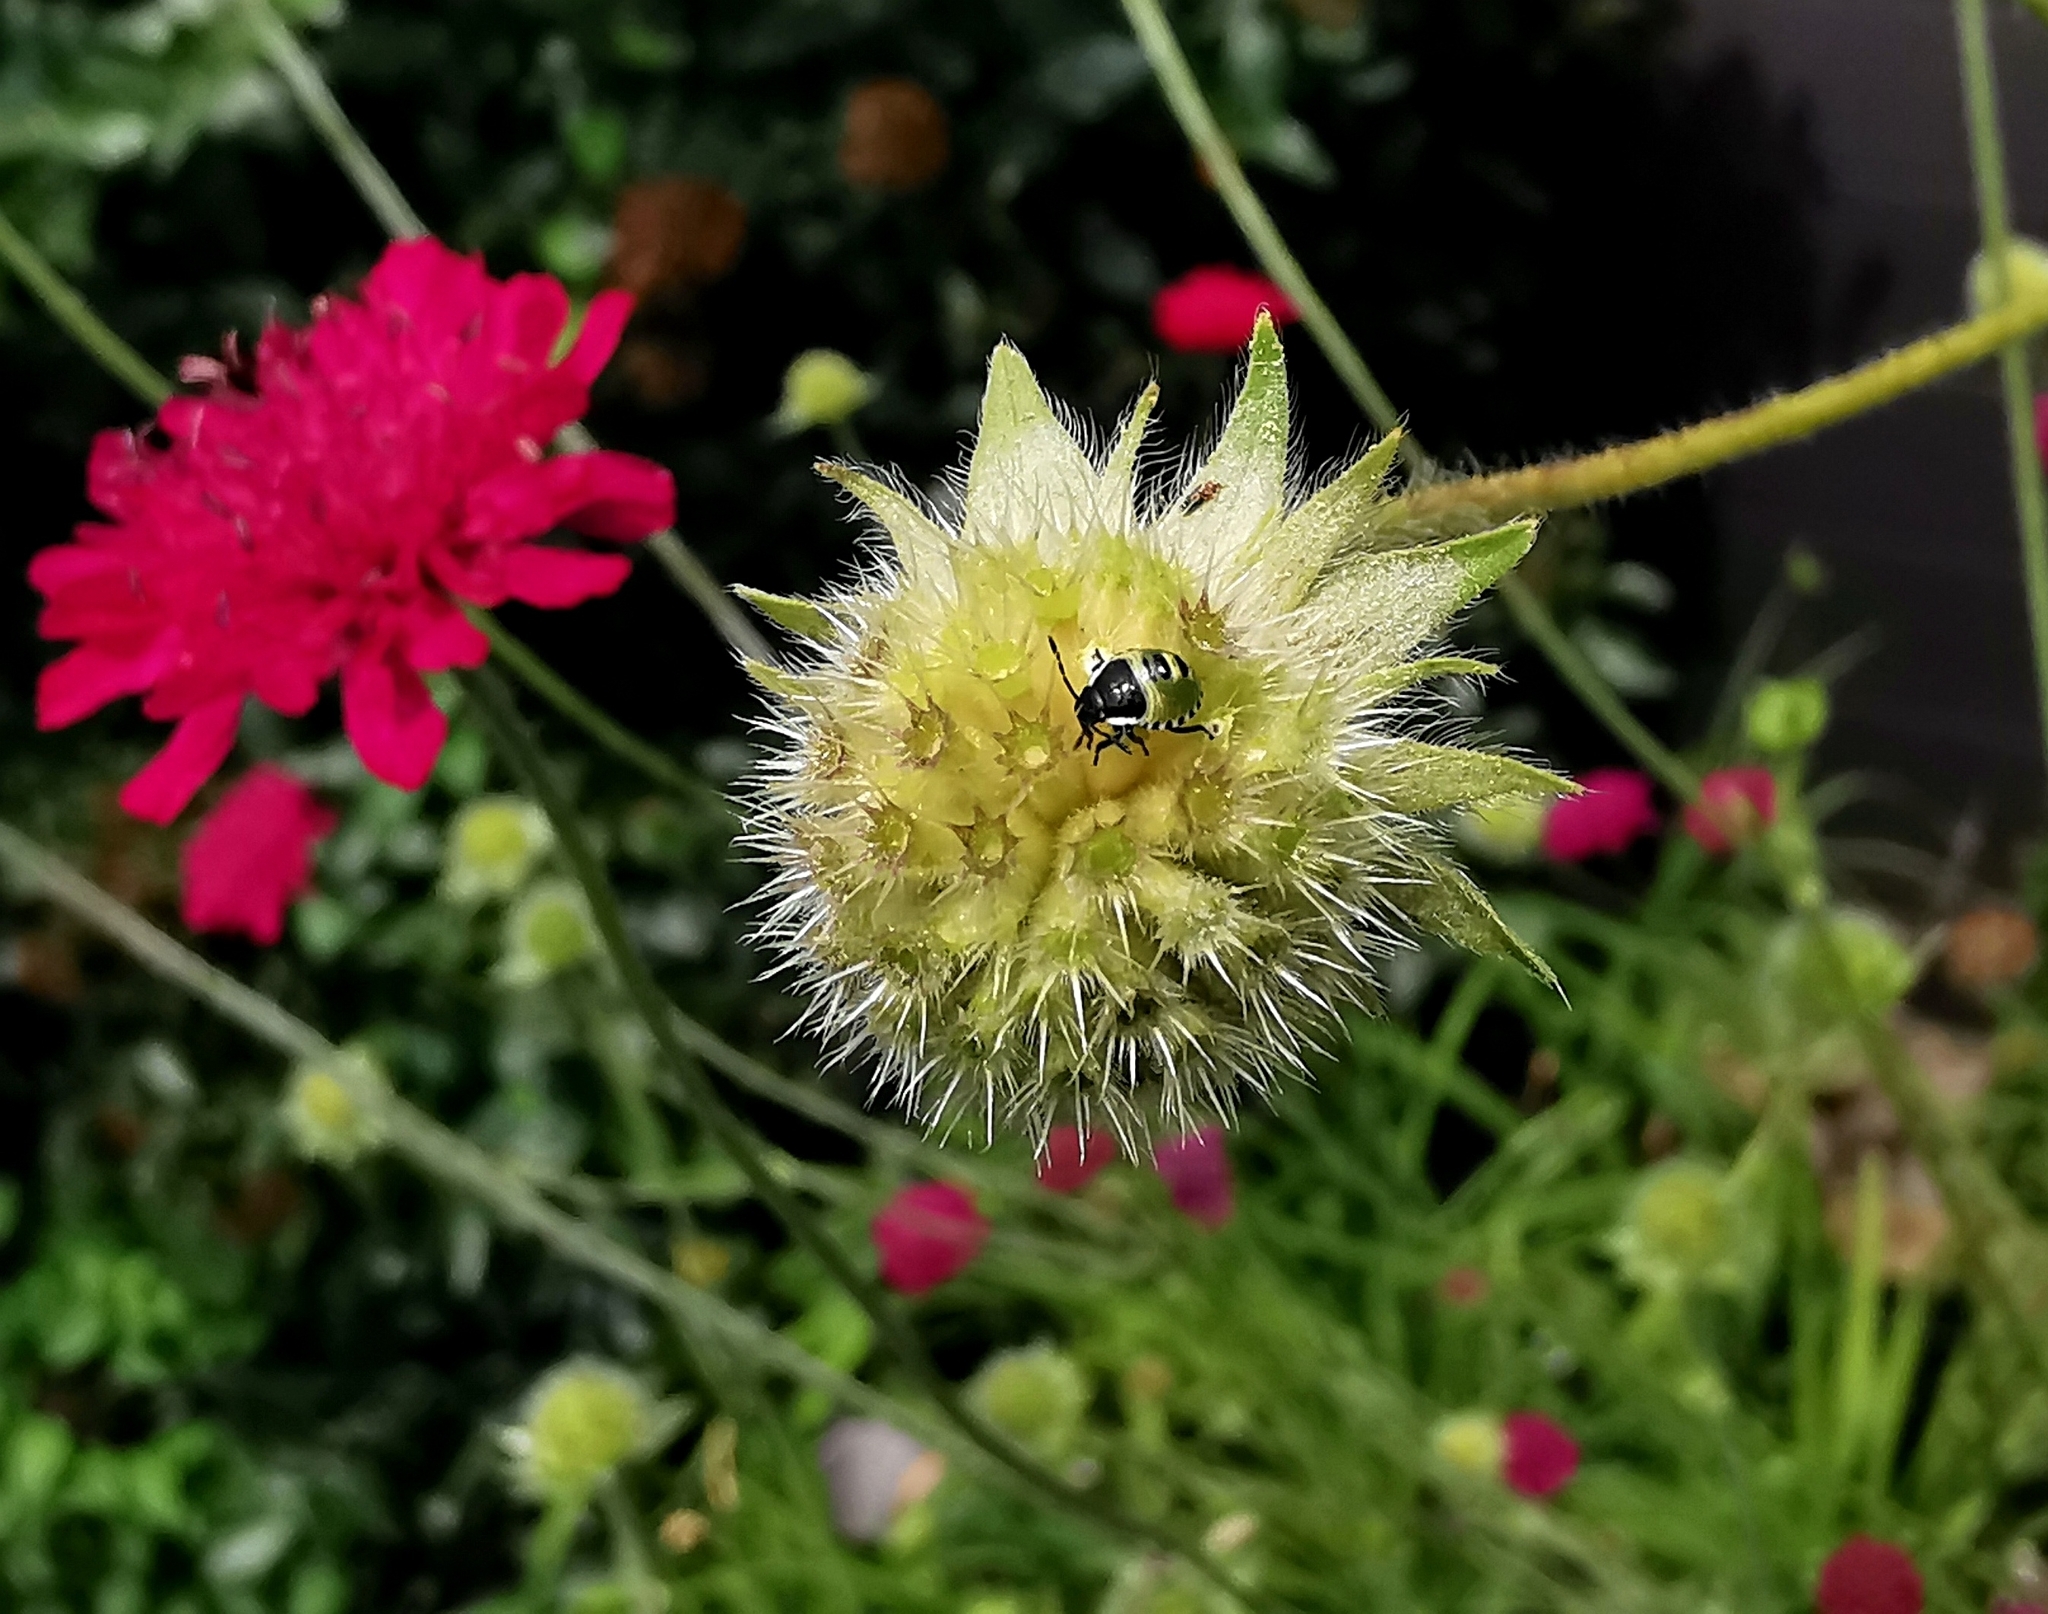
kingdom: Animalia
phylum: Arthropoda
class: Insecta
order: Hemiptera
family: Pentatomidae
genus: Palomena
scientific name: Palomena prasina
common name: Green shieldbug
